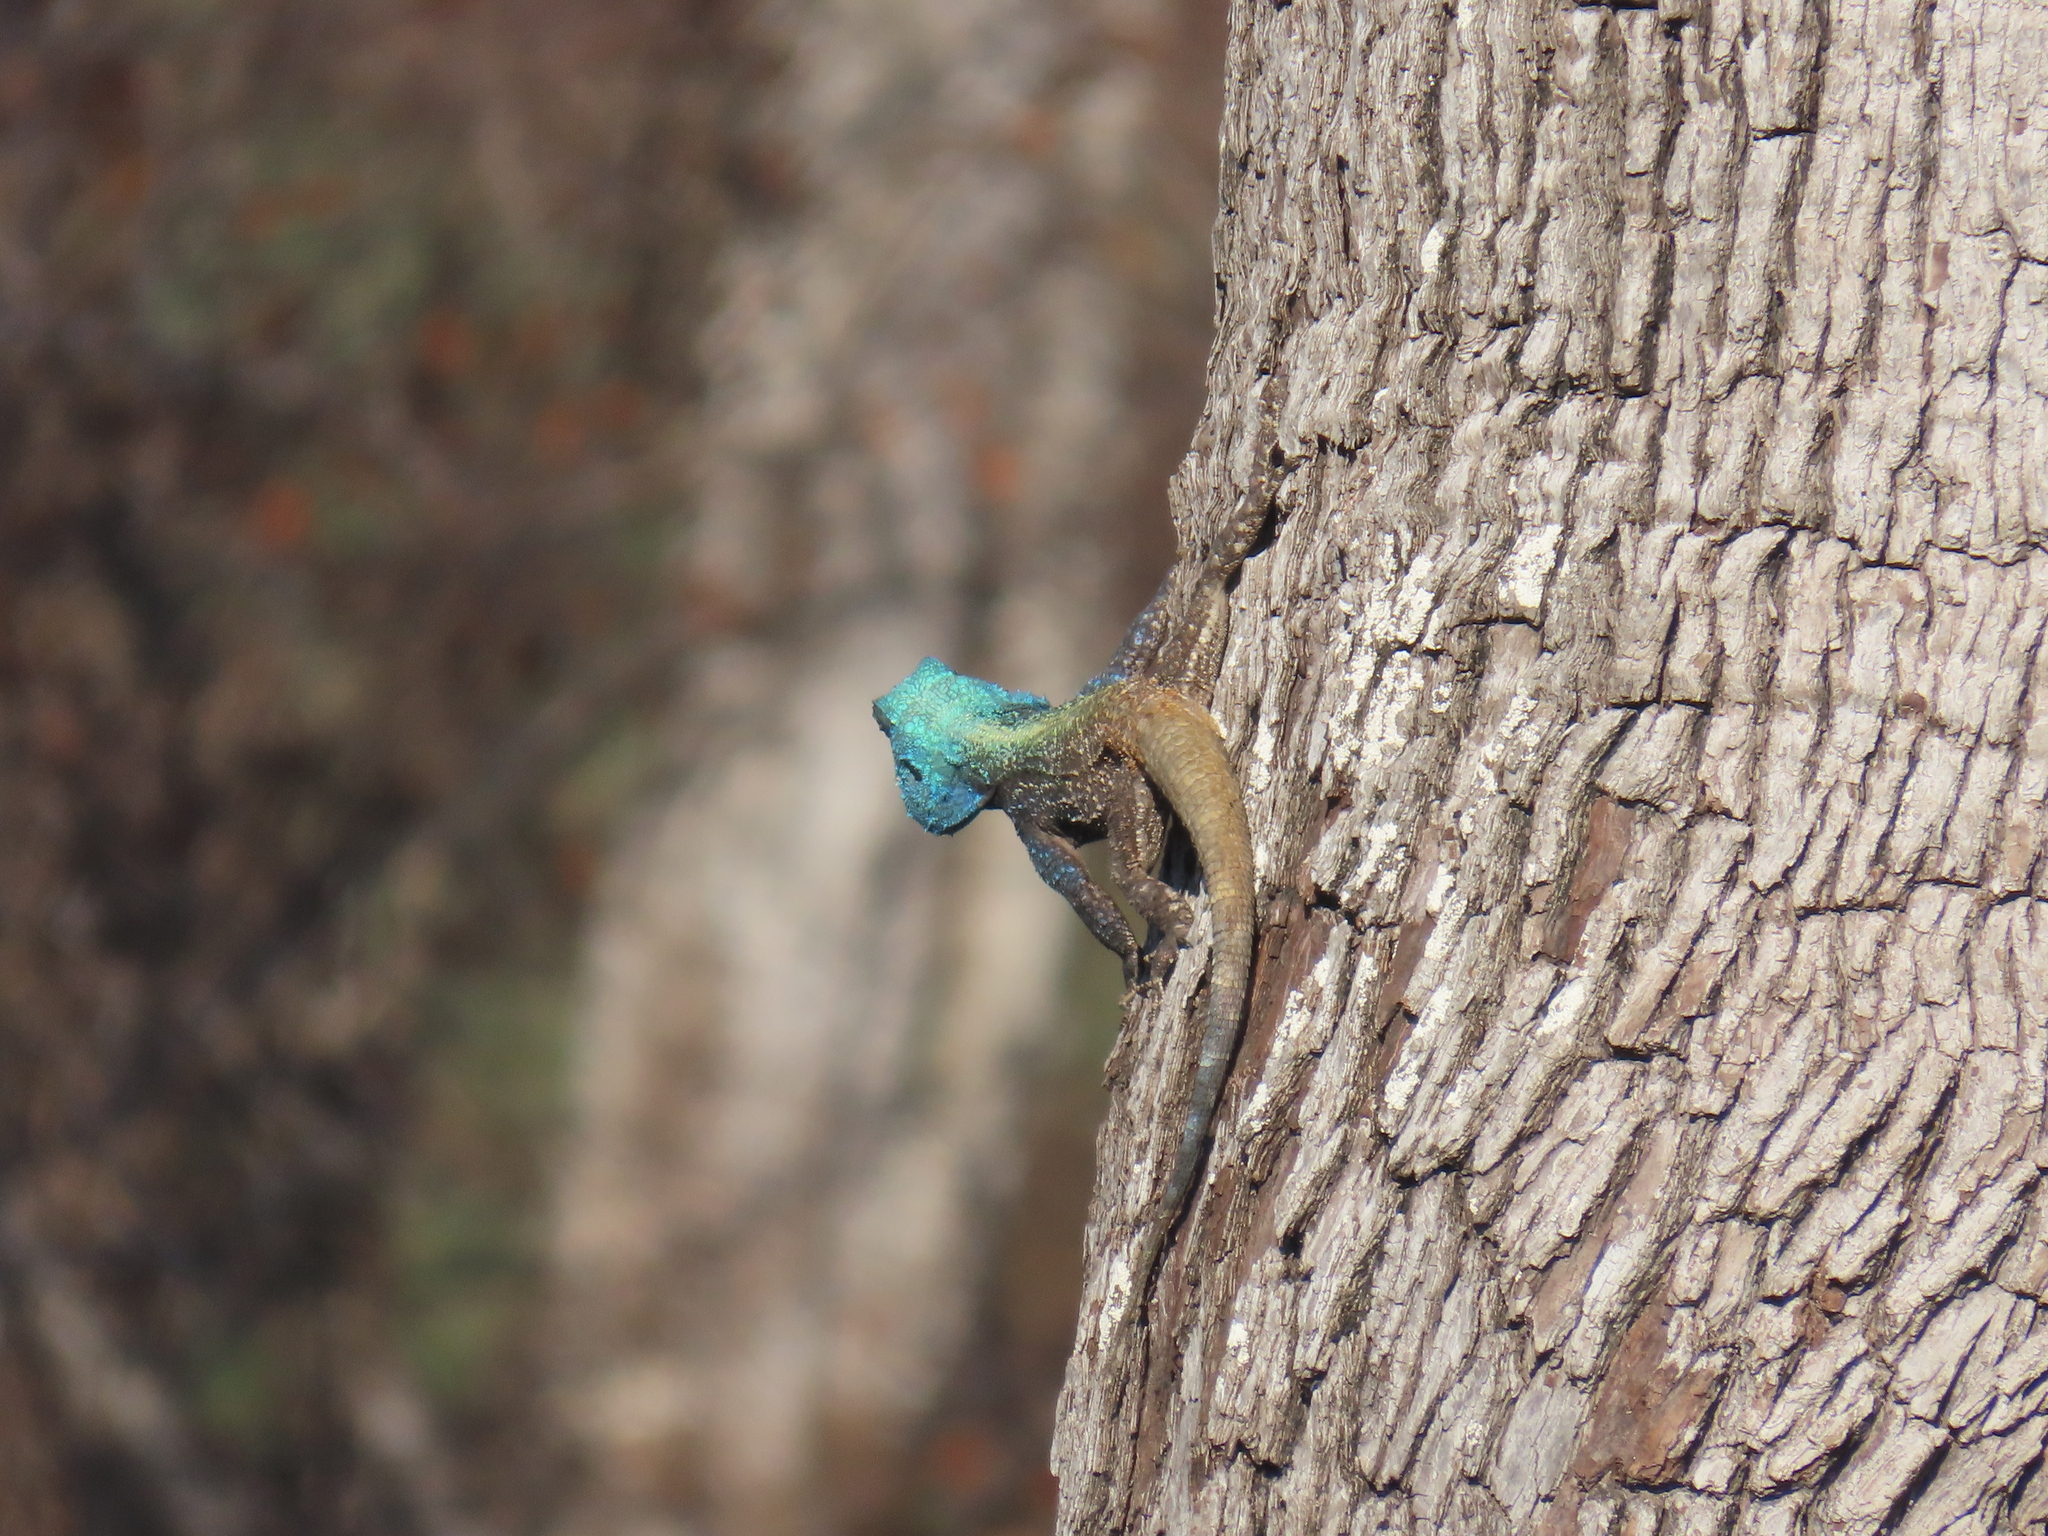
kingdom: Animalia
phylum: Chordata
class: Squamata
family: Agamidae
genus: Acanthocercus
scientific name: Acanthocercus atricollis
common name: Southern tree agama
